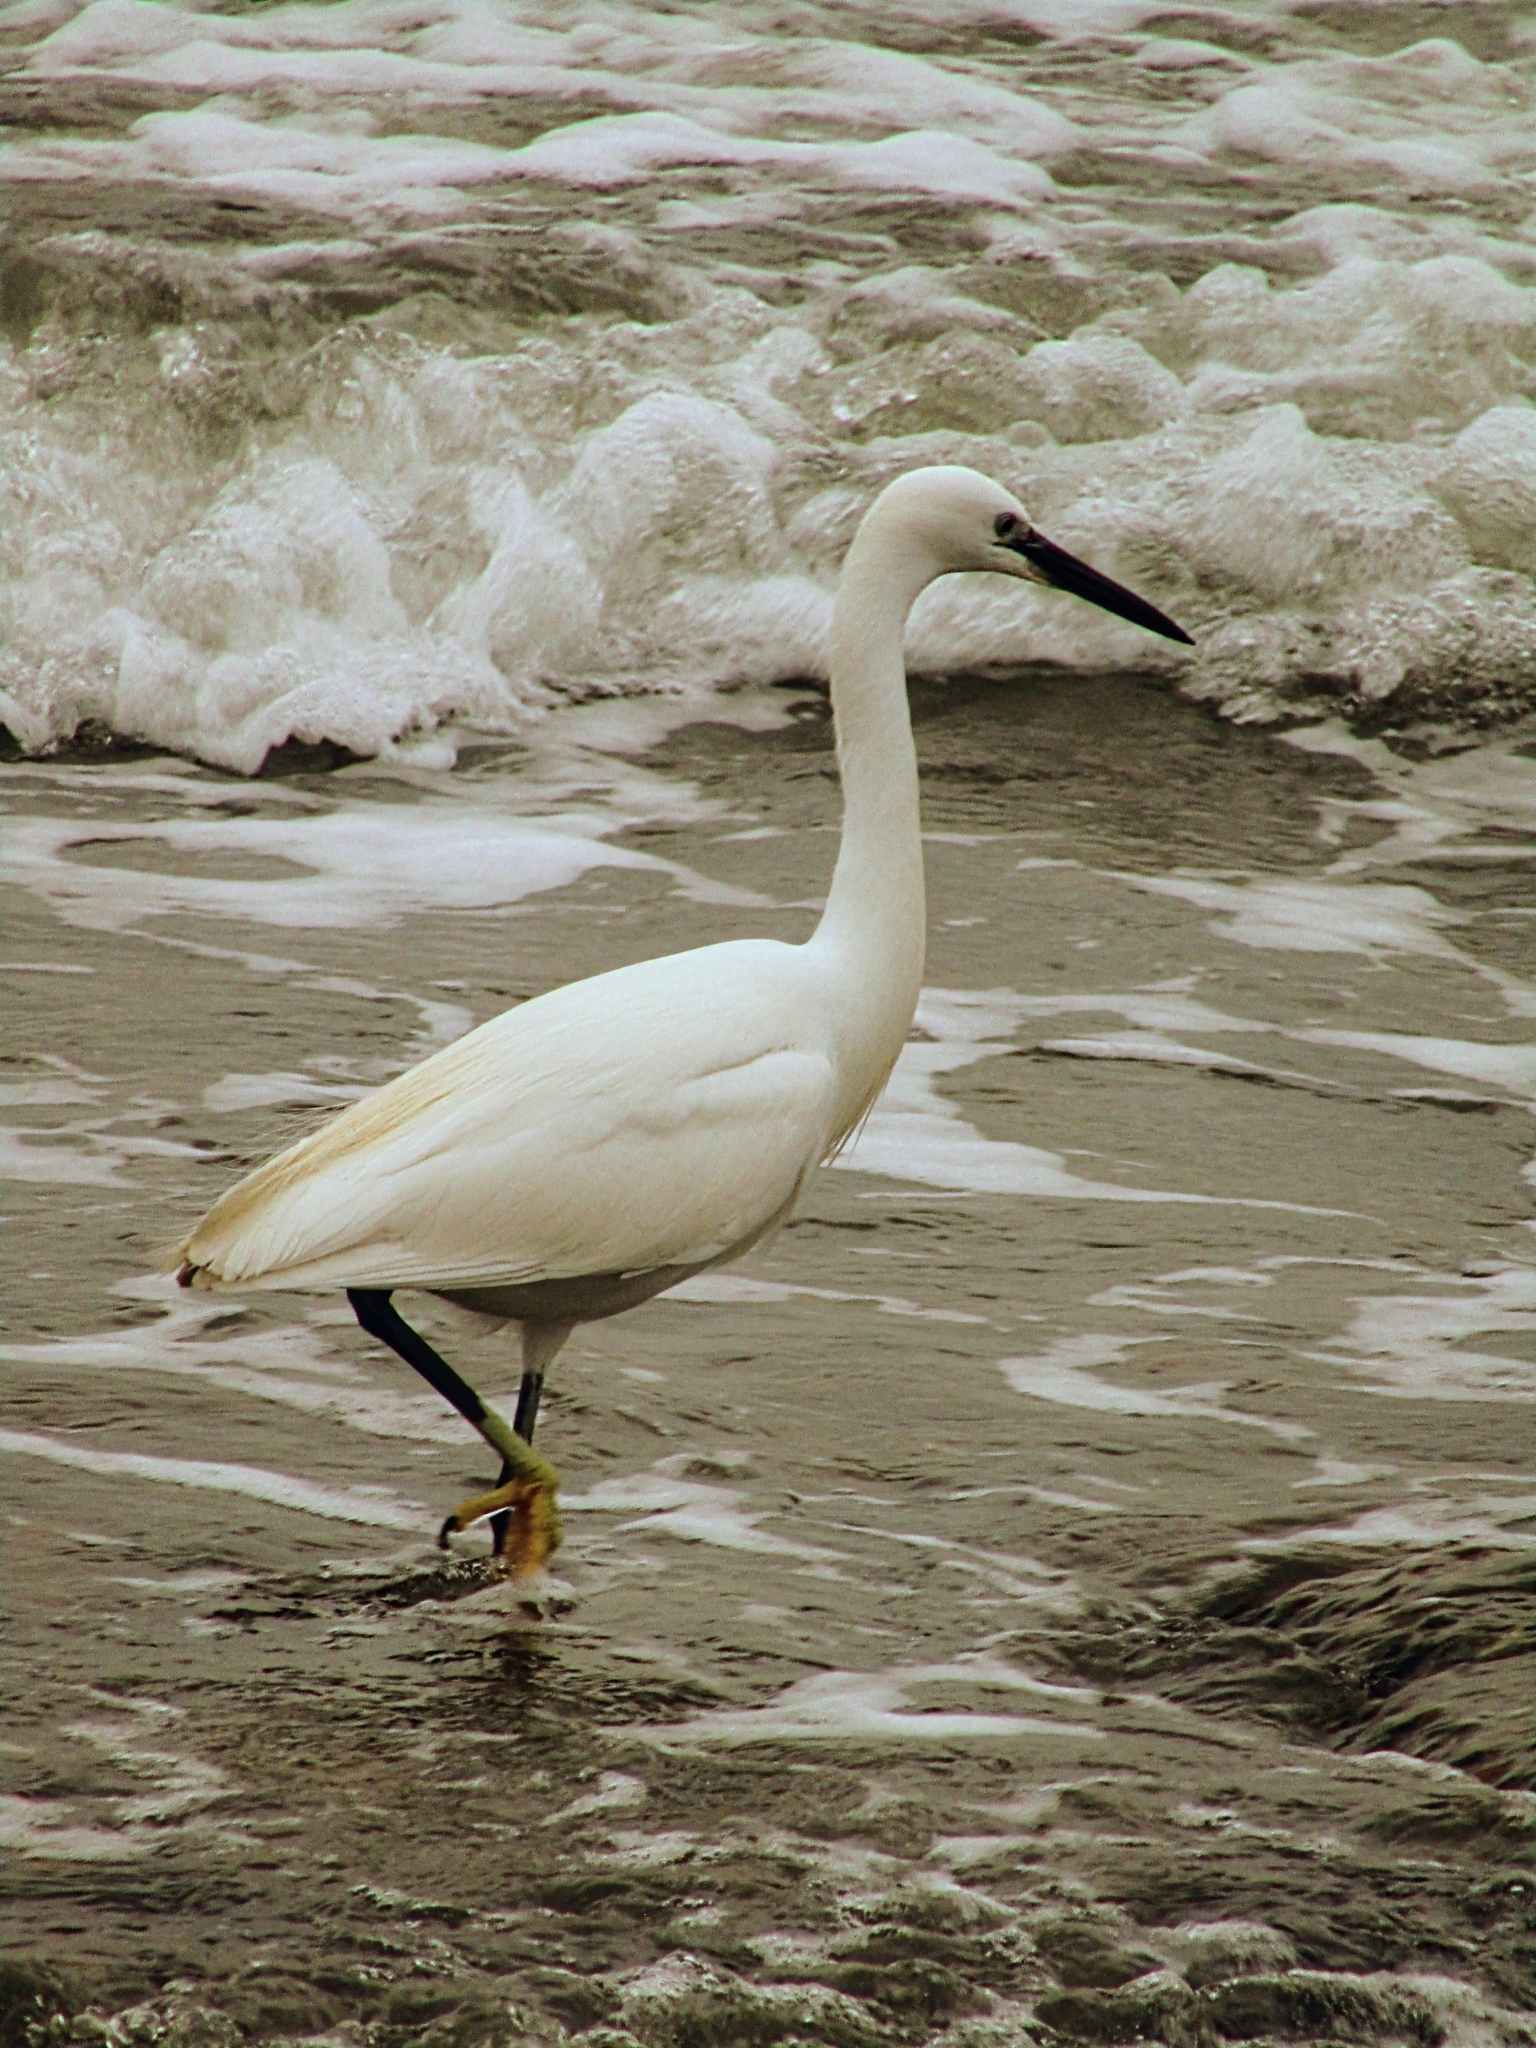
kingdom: Animalia
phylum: Chordata
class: Aves
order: Pelecaniformes
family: Ardeidae
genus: Egretta
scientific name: Egretta garzetta
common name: Little egret
